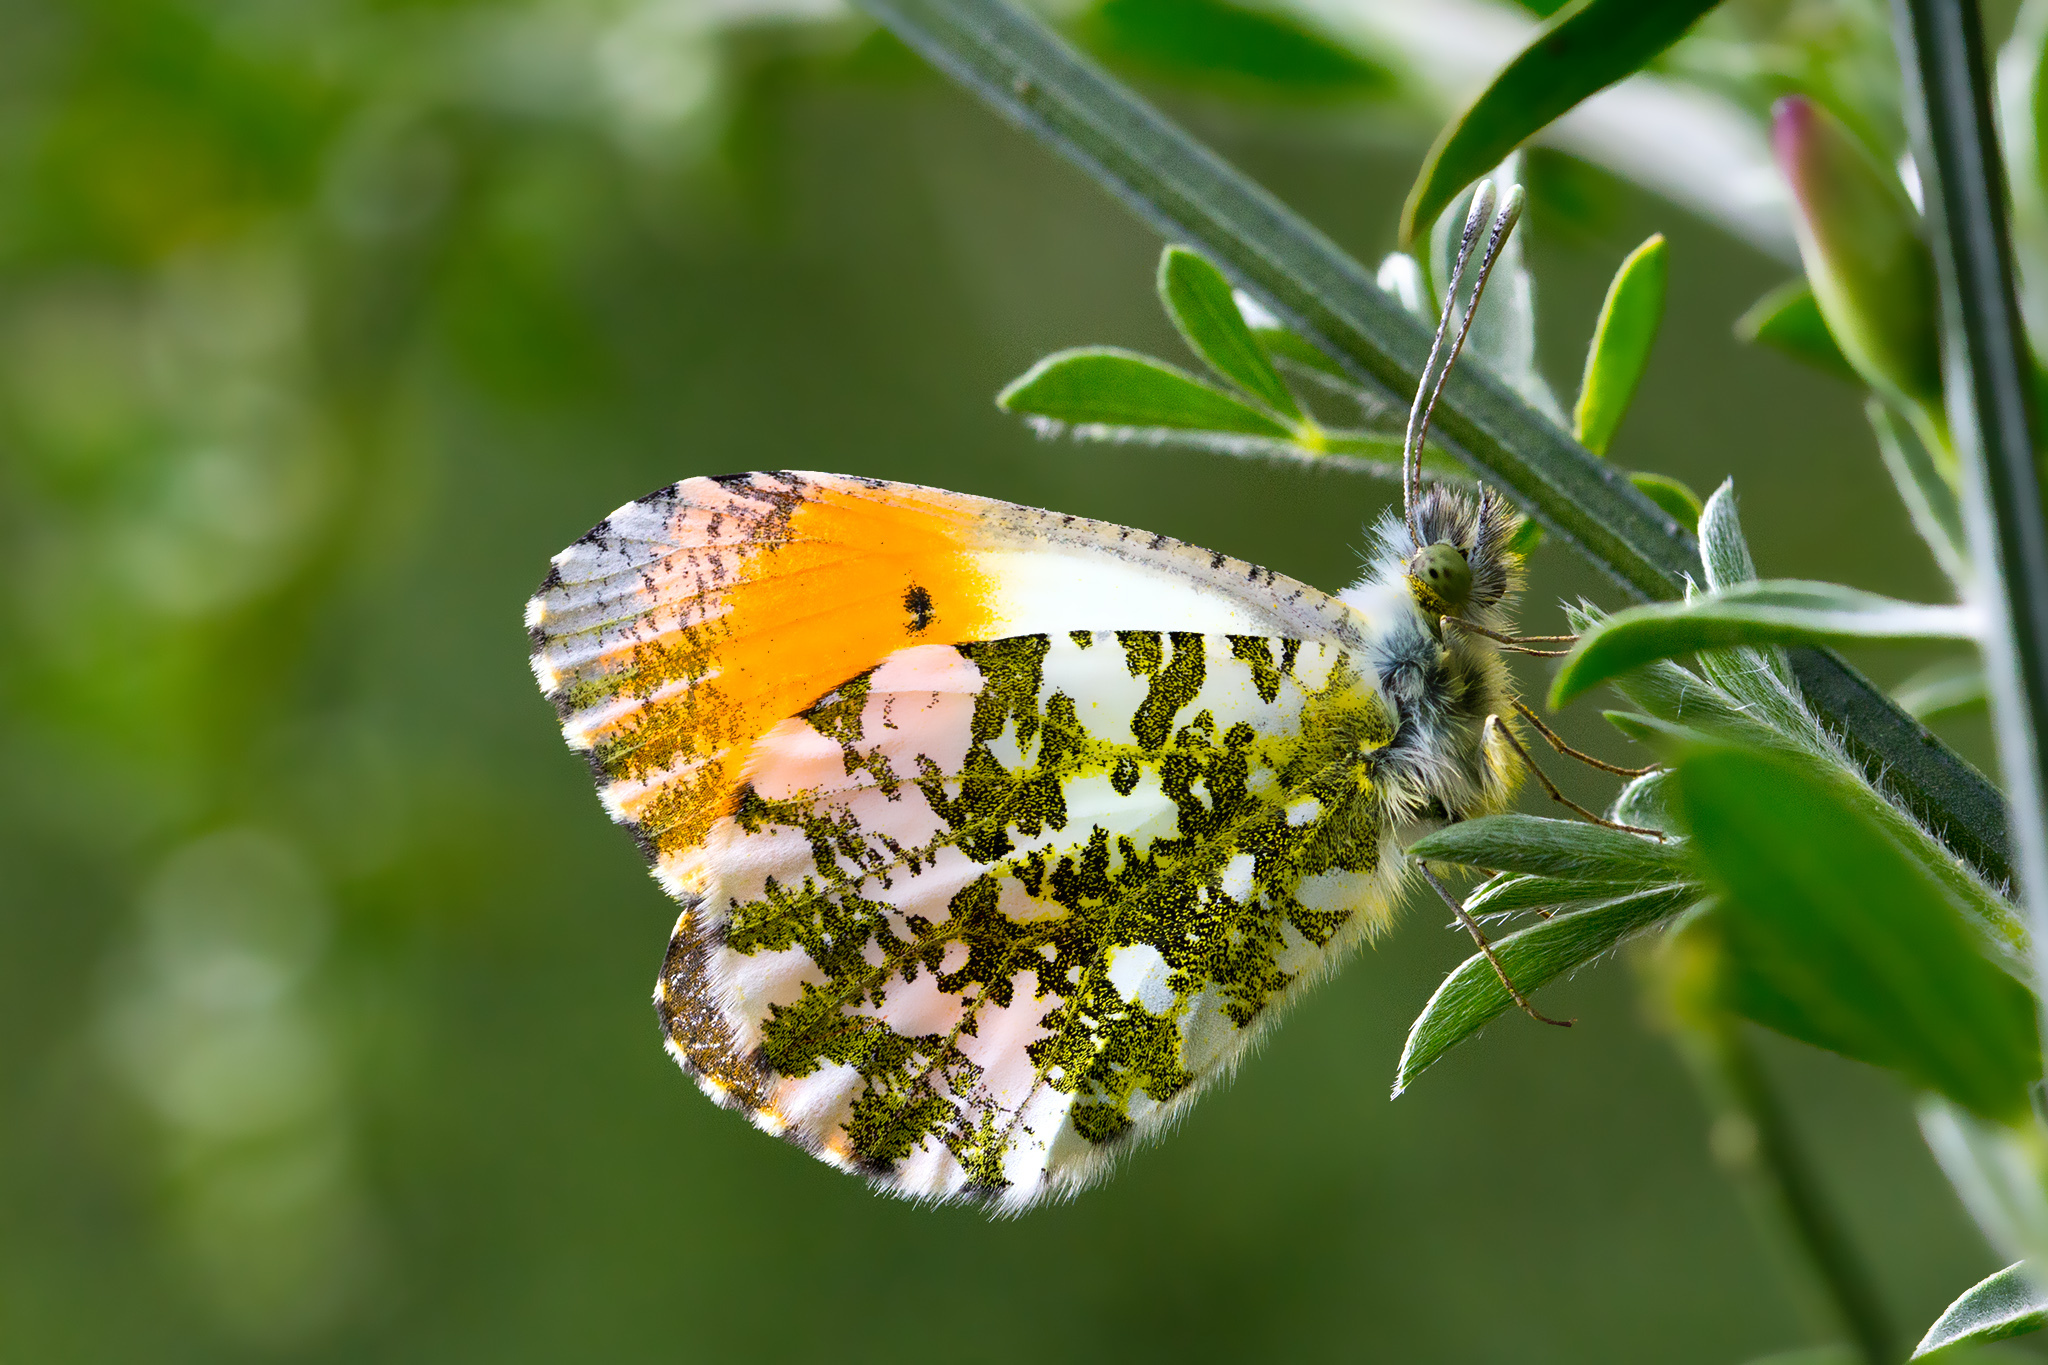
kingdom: Animalia
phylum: Arthropoda
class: Insecta
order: Lepidoptera
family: Pieridae
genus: Anthocharis
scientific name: Anthocharis cardamines
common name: Orange-tip
